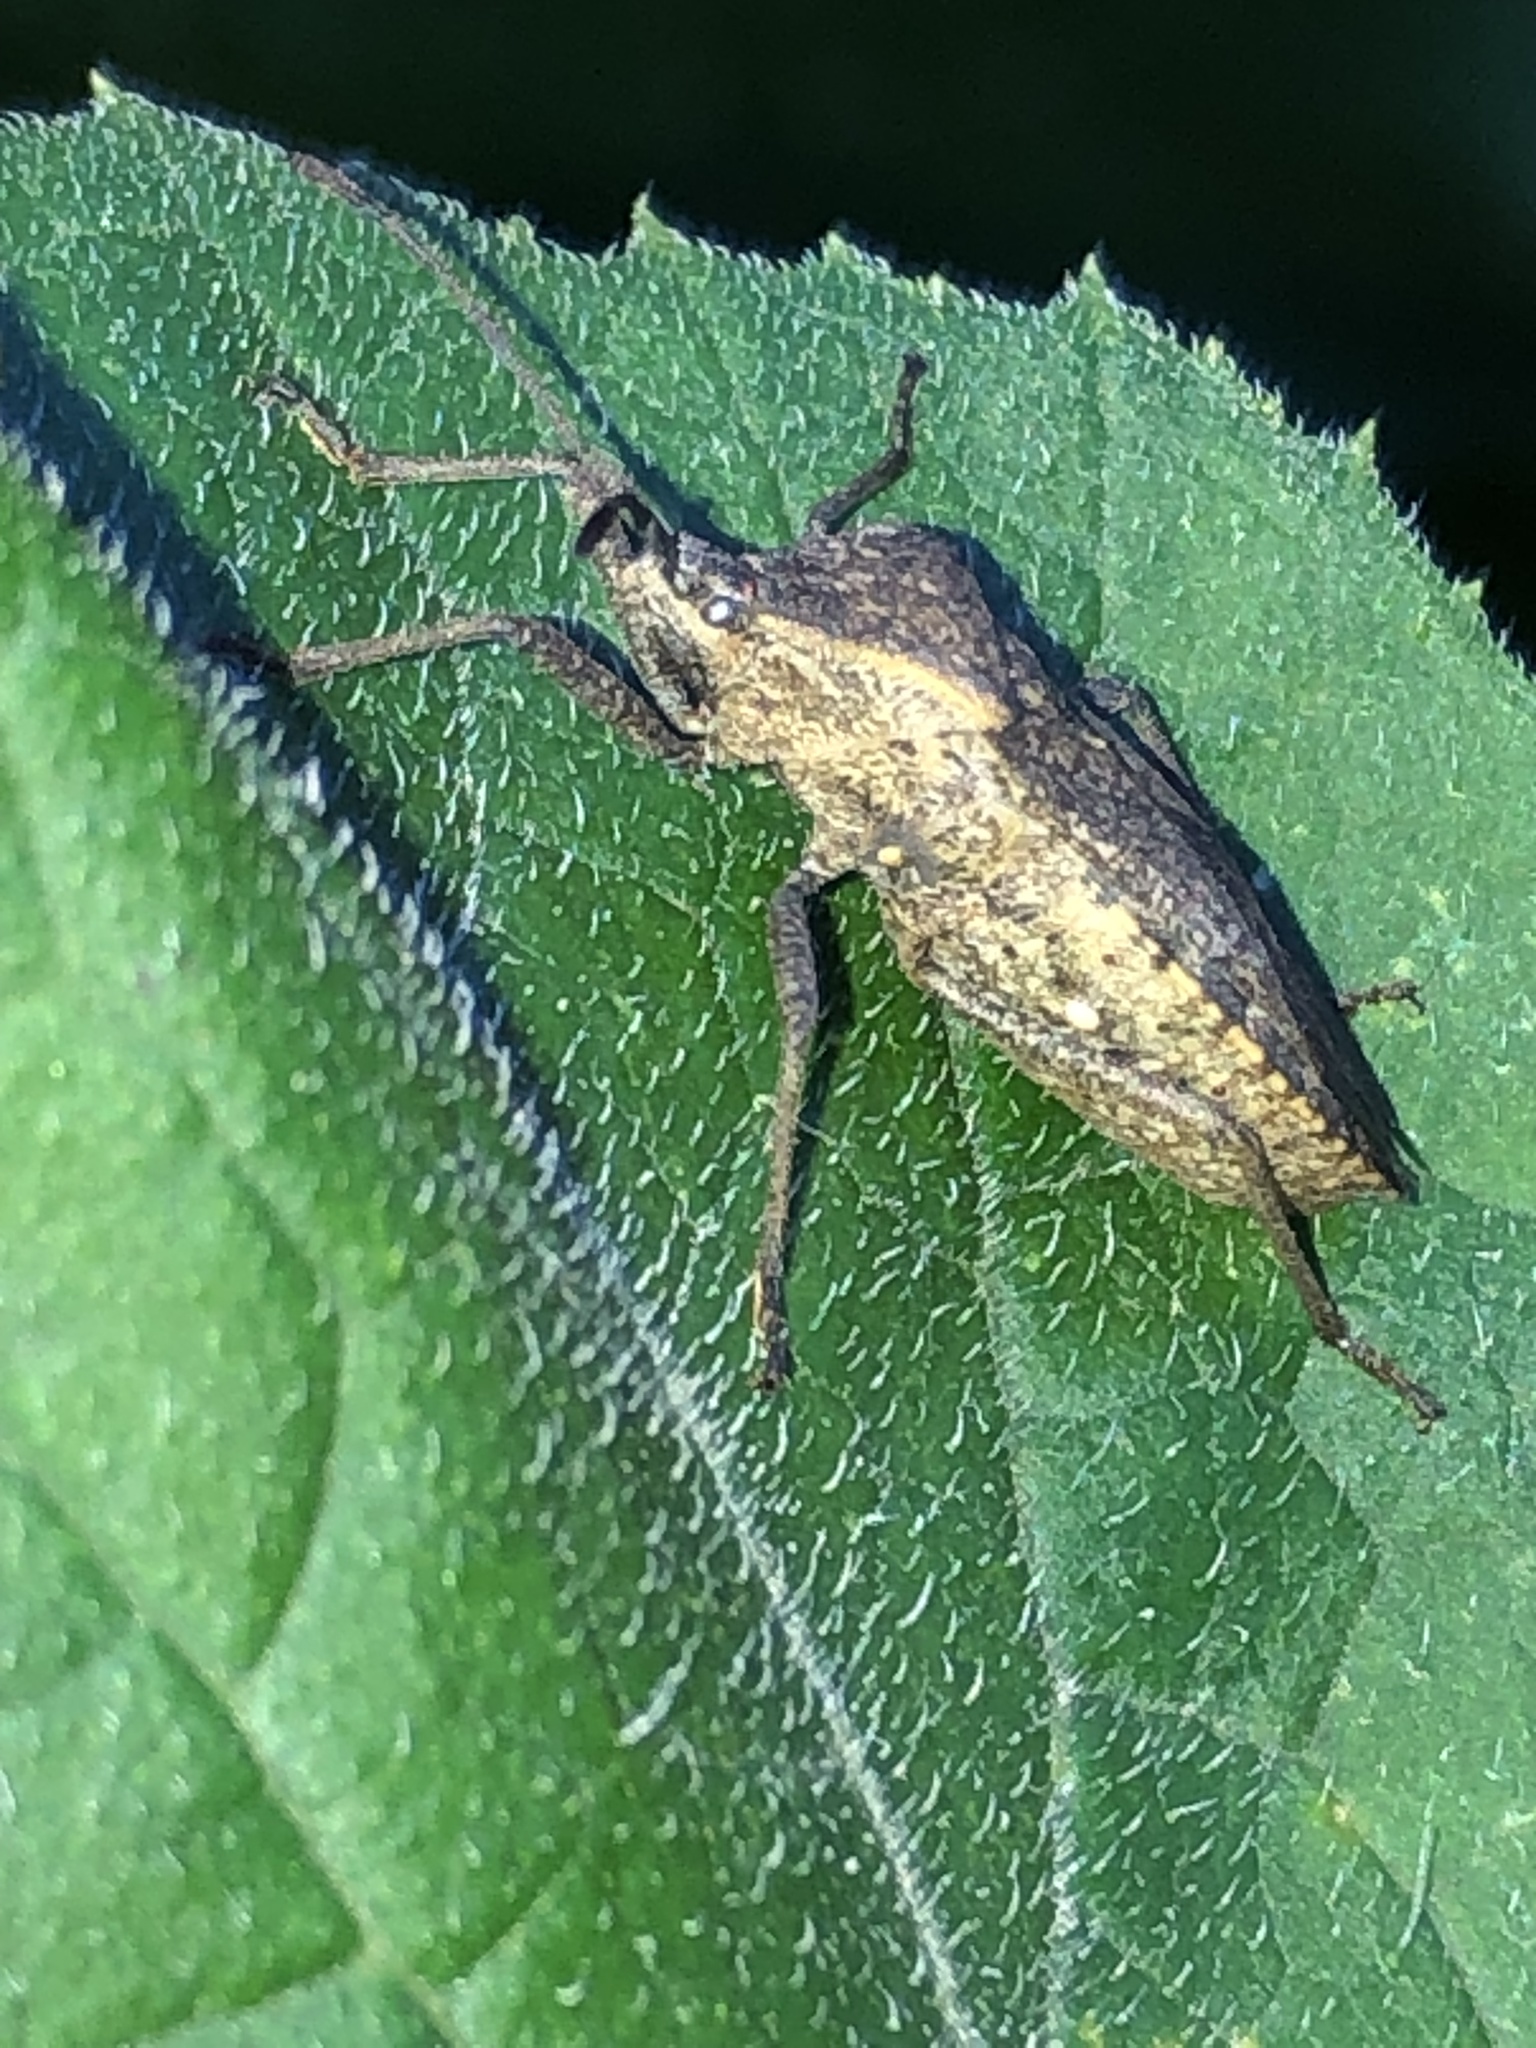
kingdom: Animalia
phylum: Arthropoda
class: Insecta
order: Hemiptera
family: Coreidae
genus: Anasa
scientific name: Anasa tristis
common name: Squash bug
